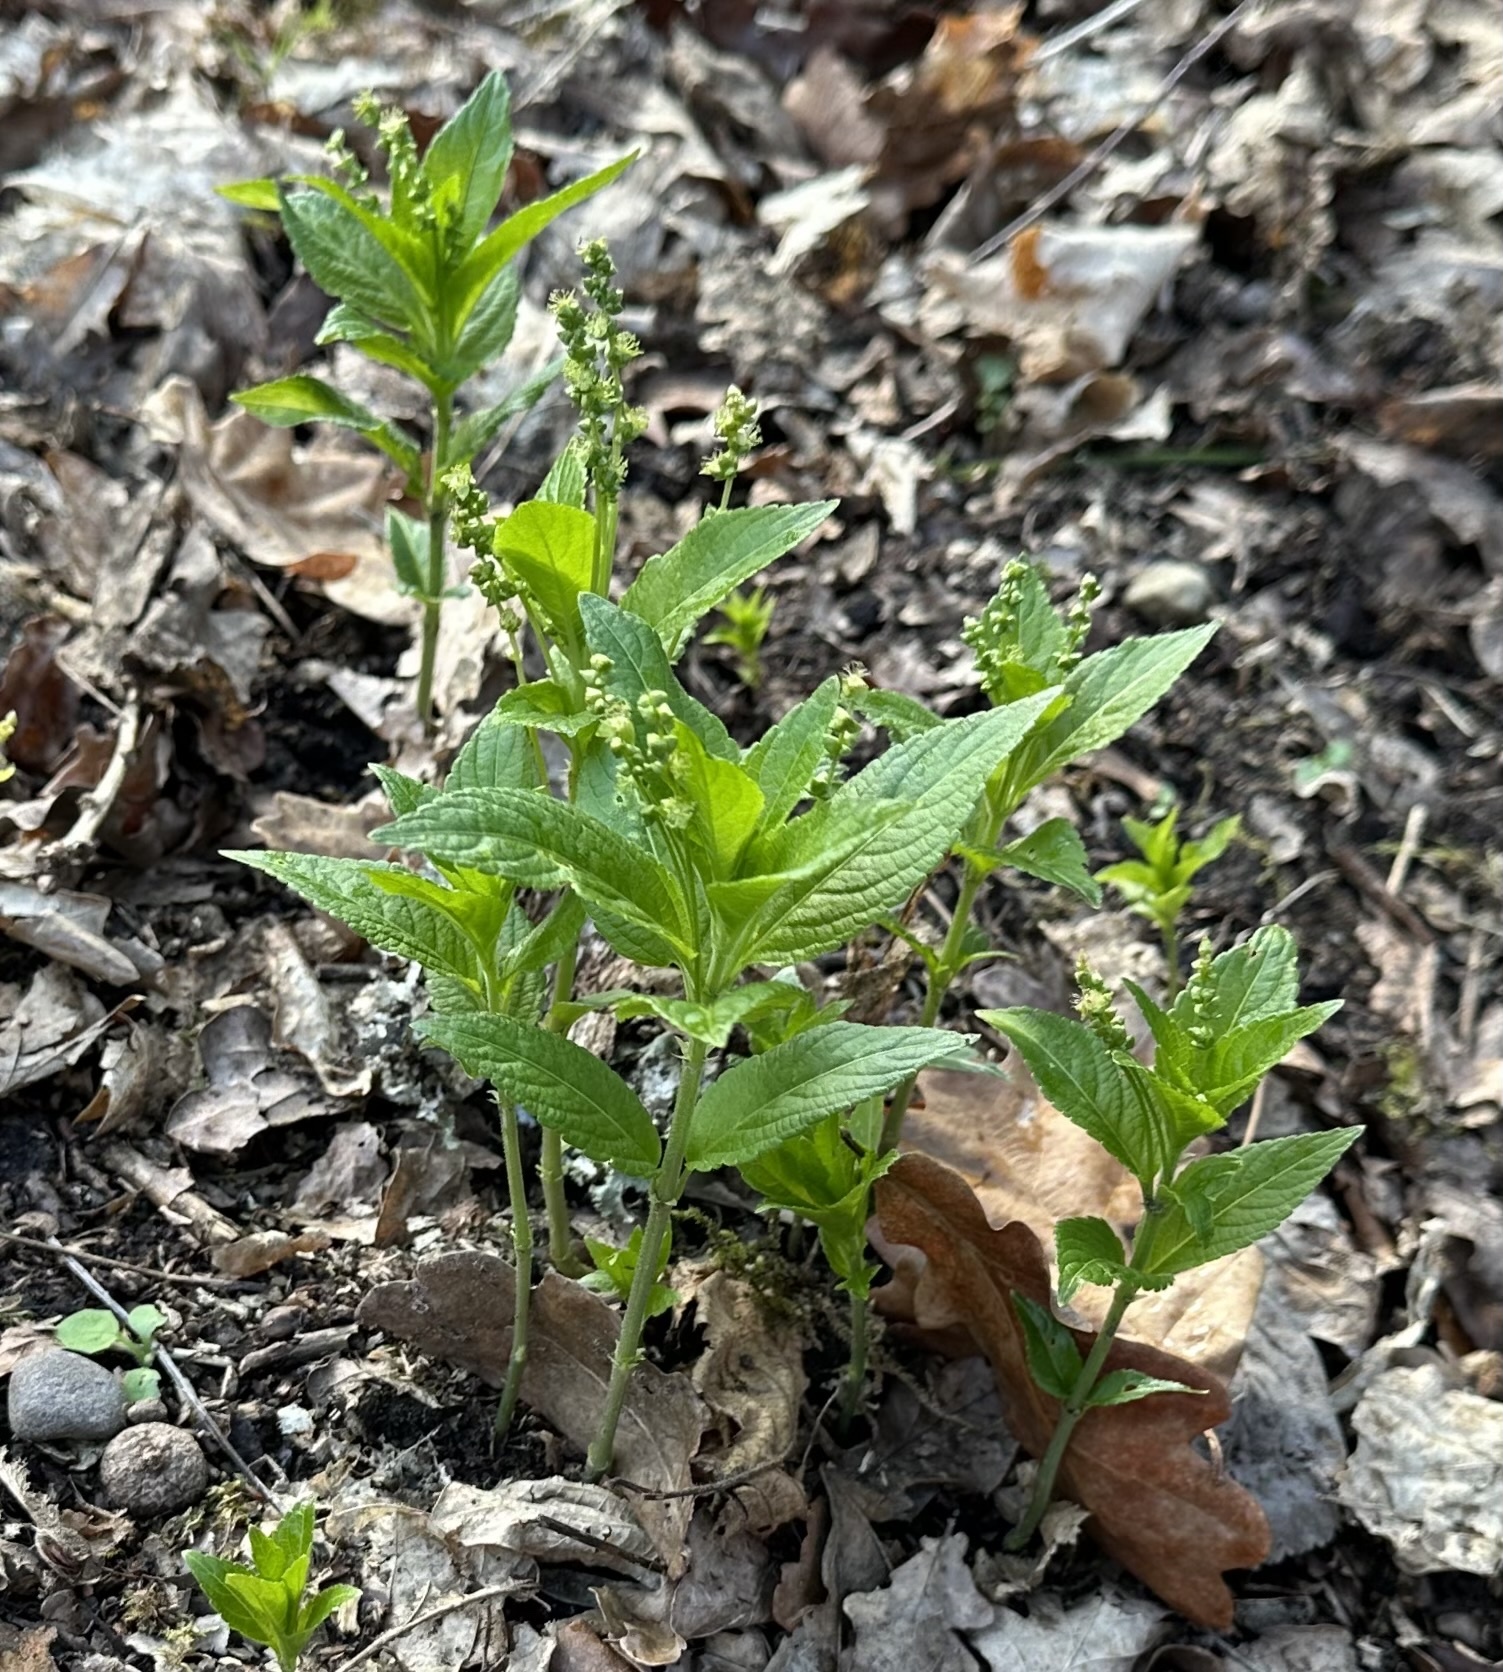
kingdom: Plantae
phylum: Tracheophyta
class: Magnoliopsida
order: Malpighiales
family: Euphorbiaceae
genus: Mercurialis
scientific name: Mercurialis perennis
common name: Dog mercury
